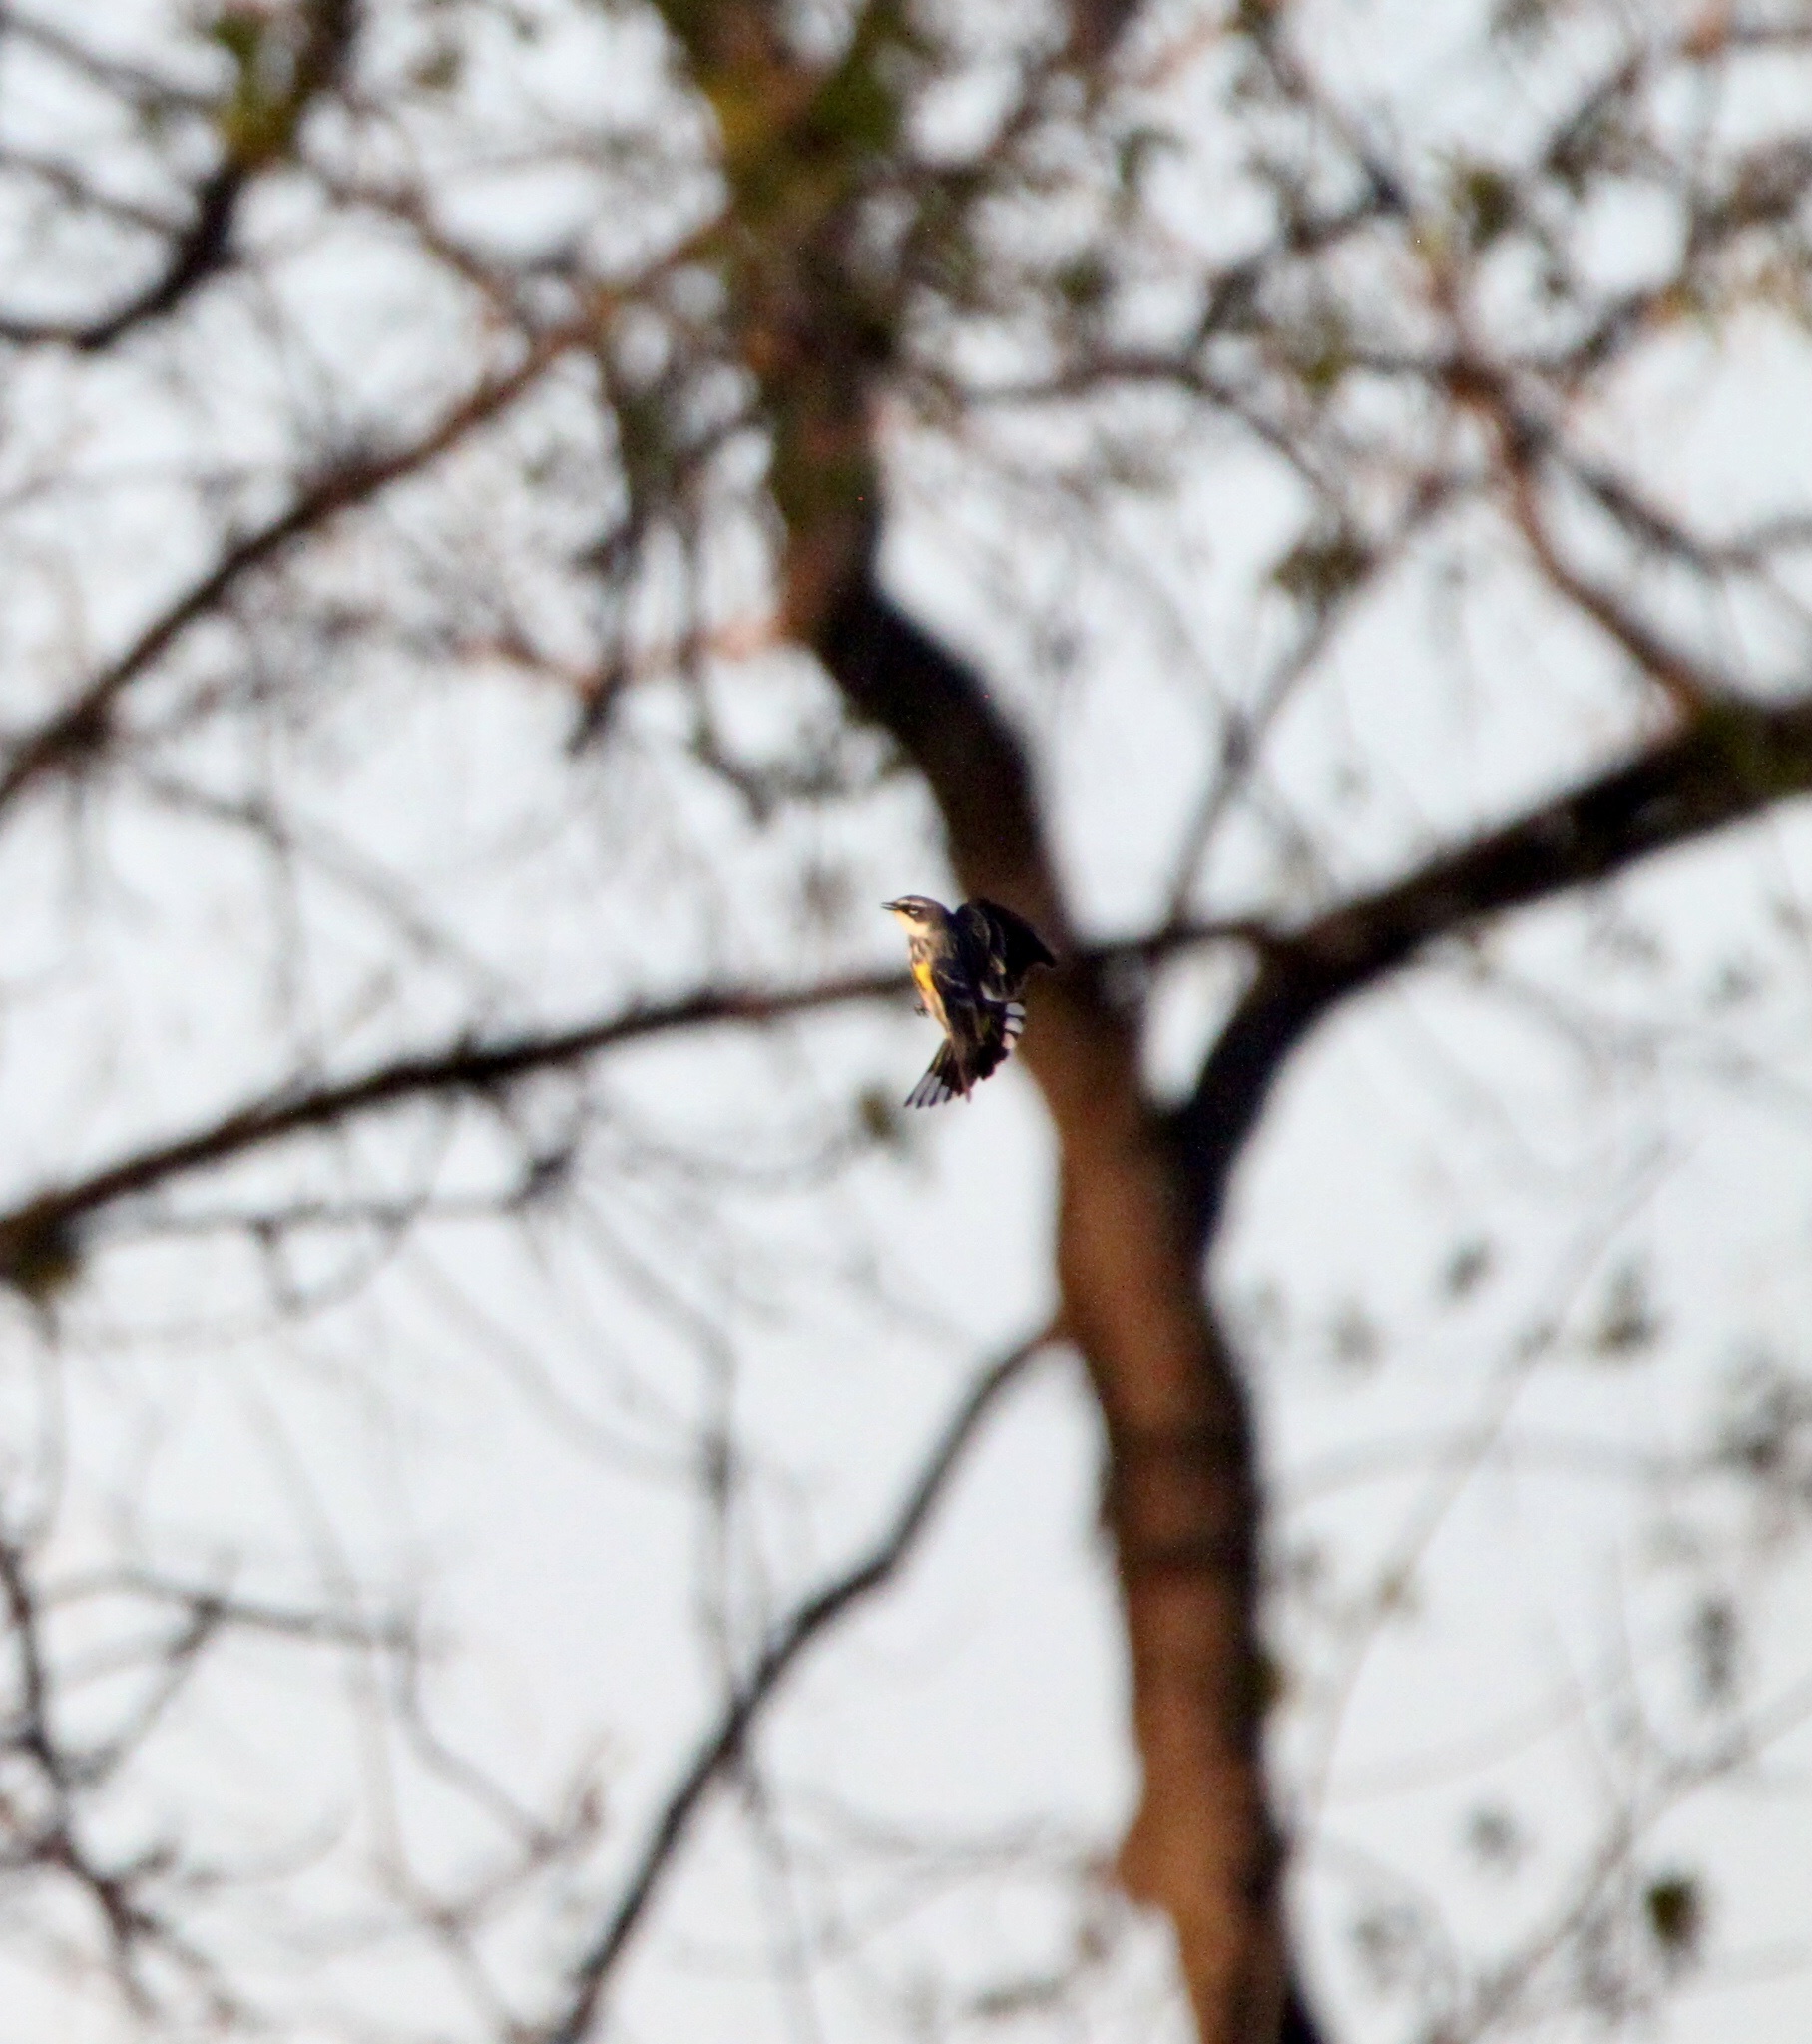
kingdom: Animalia
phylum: Chordata
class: Aves
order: Passeriformes
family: Parulidae
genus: Setophaga
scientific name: Setophaga coronata
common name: Myrtle warbler
